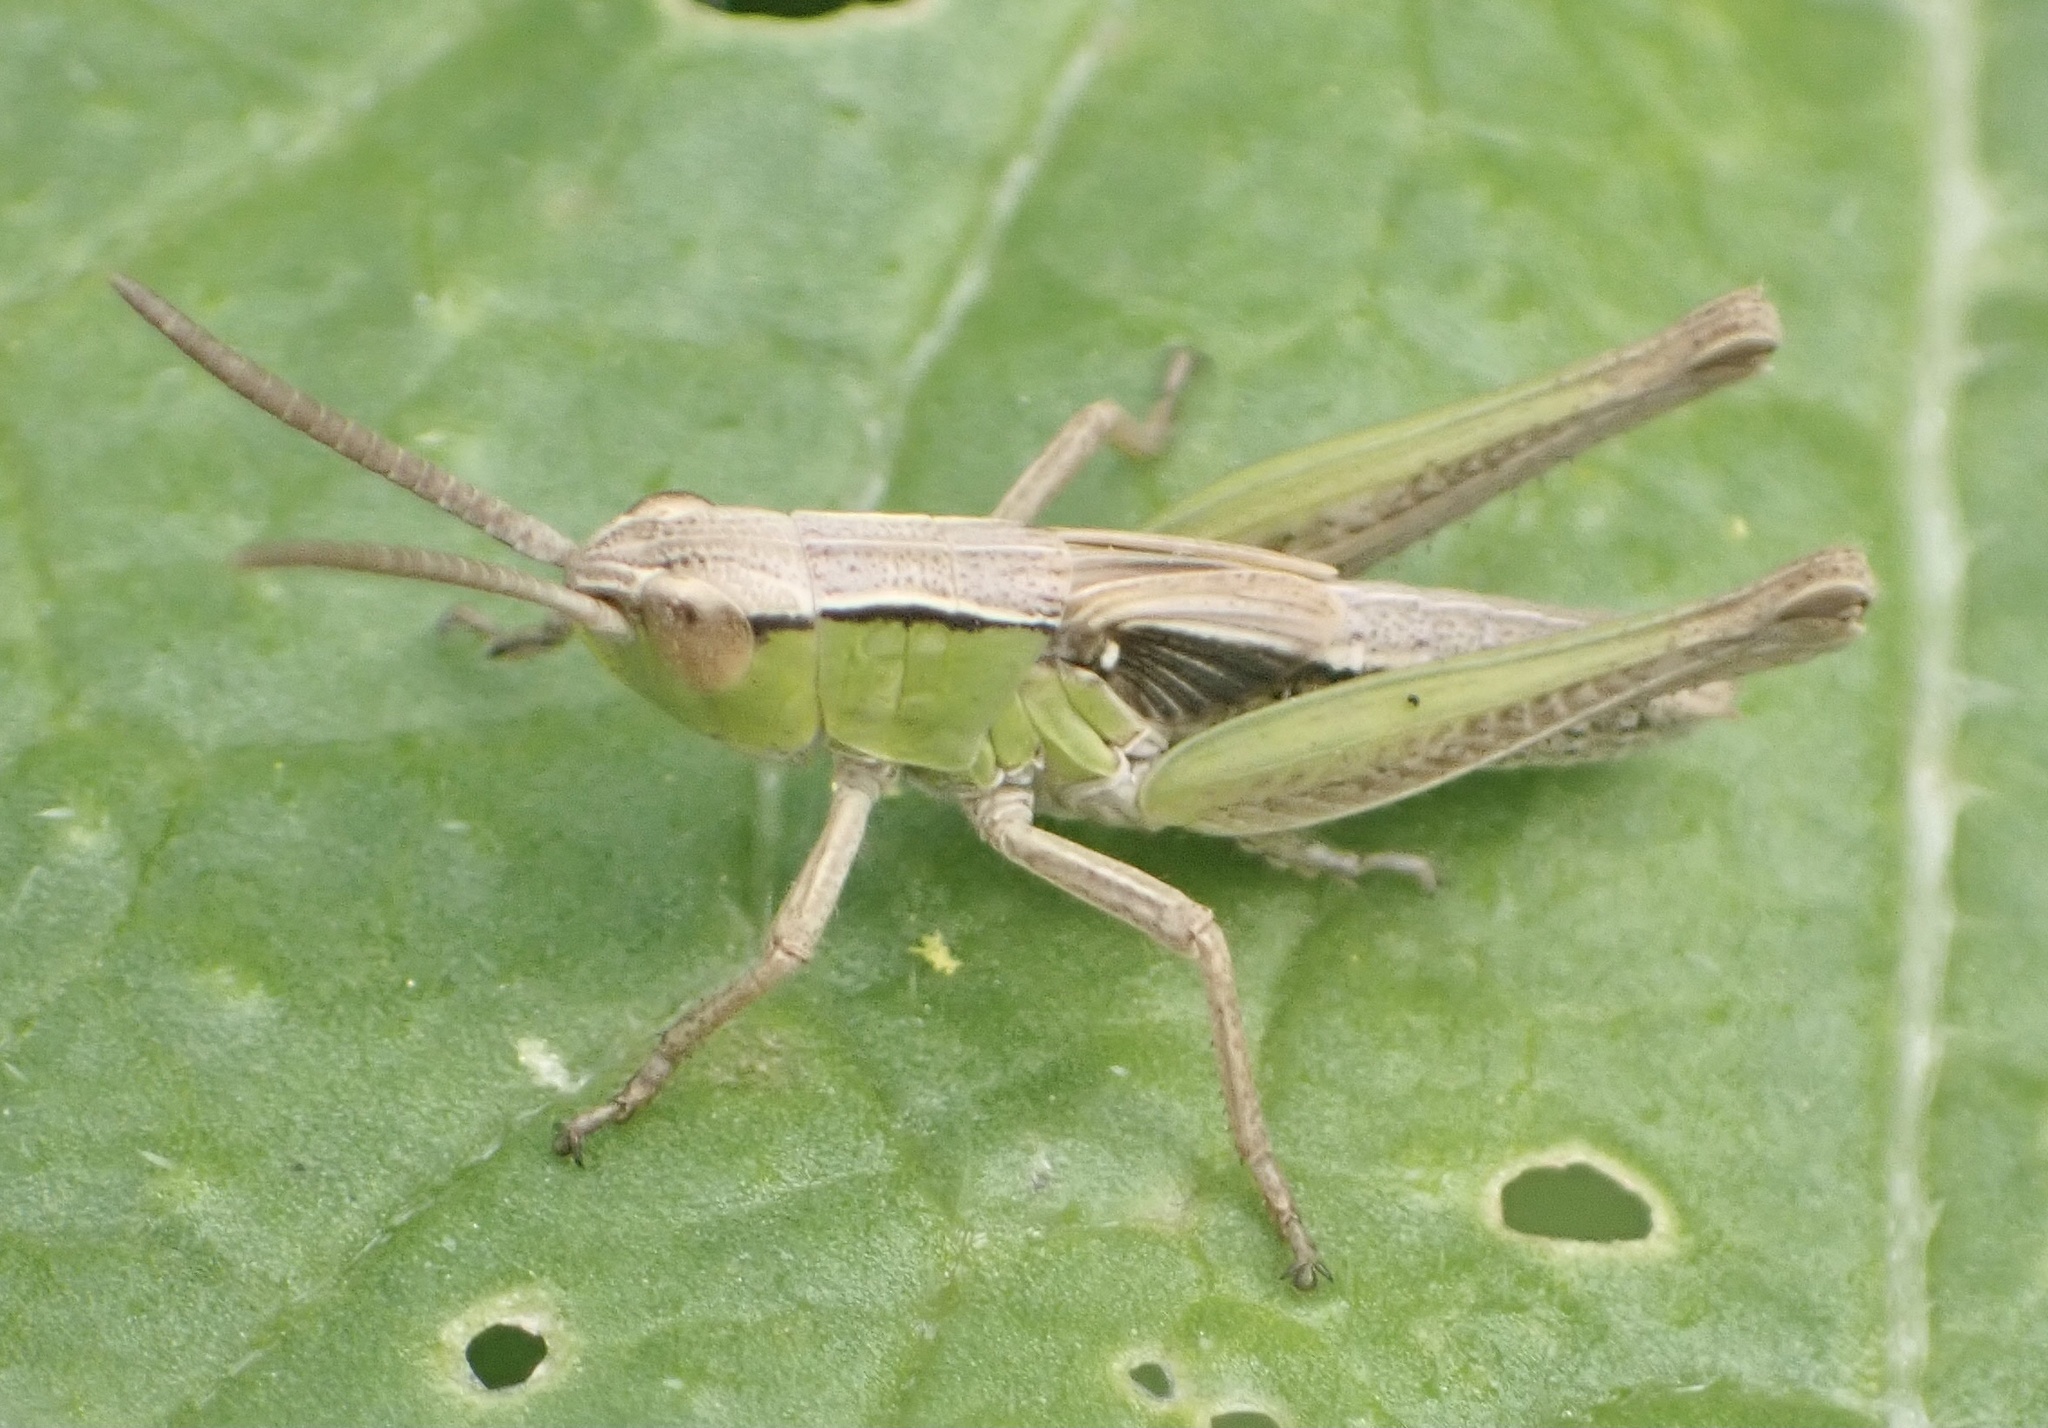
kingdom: Animalia
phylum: Arthropoda
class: Insecta
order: Orthoptera
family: Acrididae
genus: Chorthippus
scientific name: Chorthippus albomarginatus
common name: Lesser marsh grasshopper
